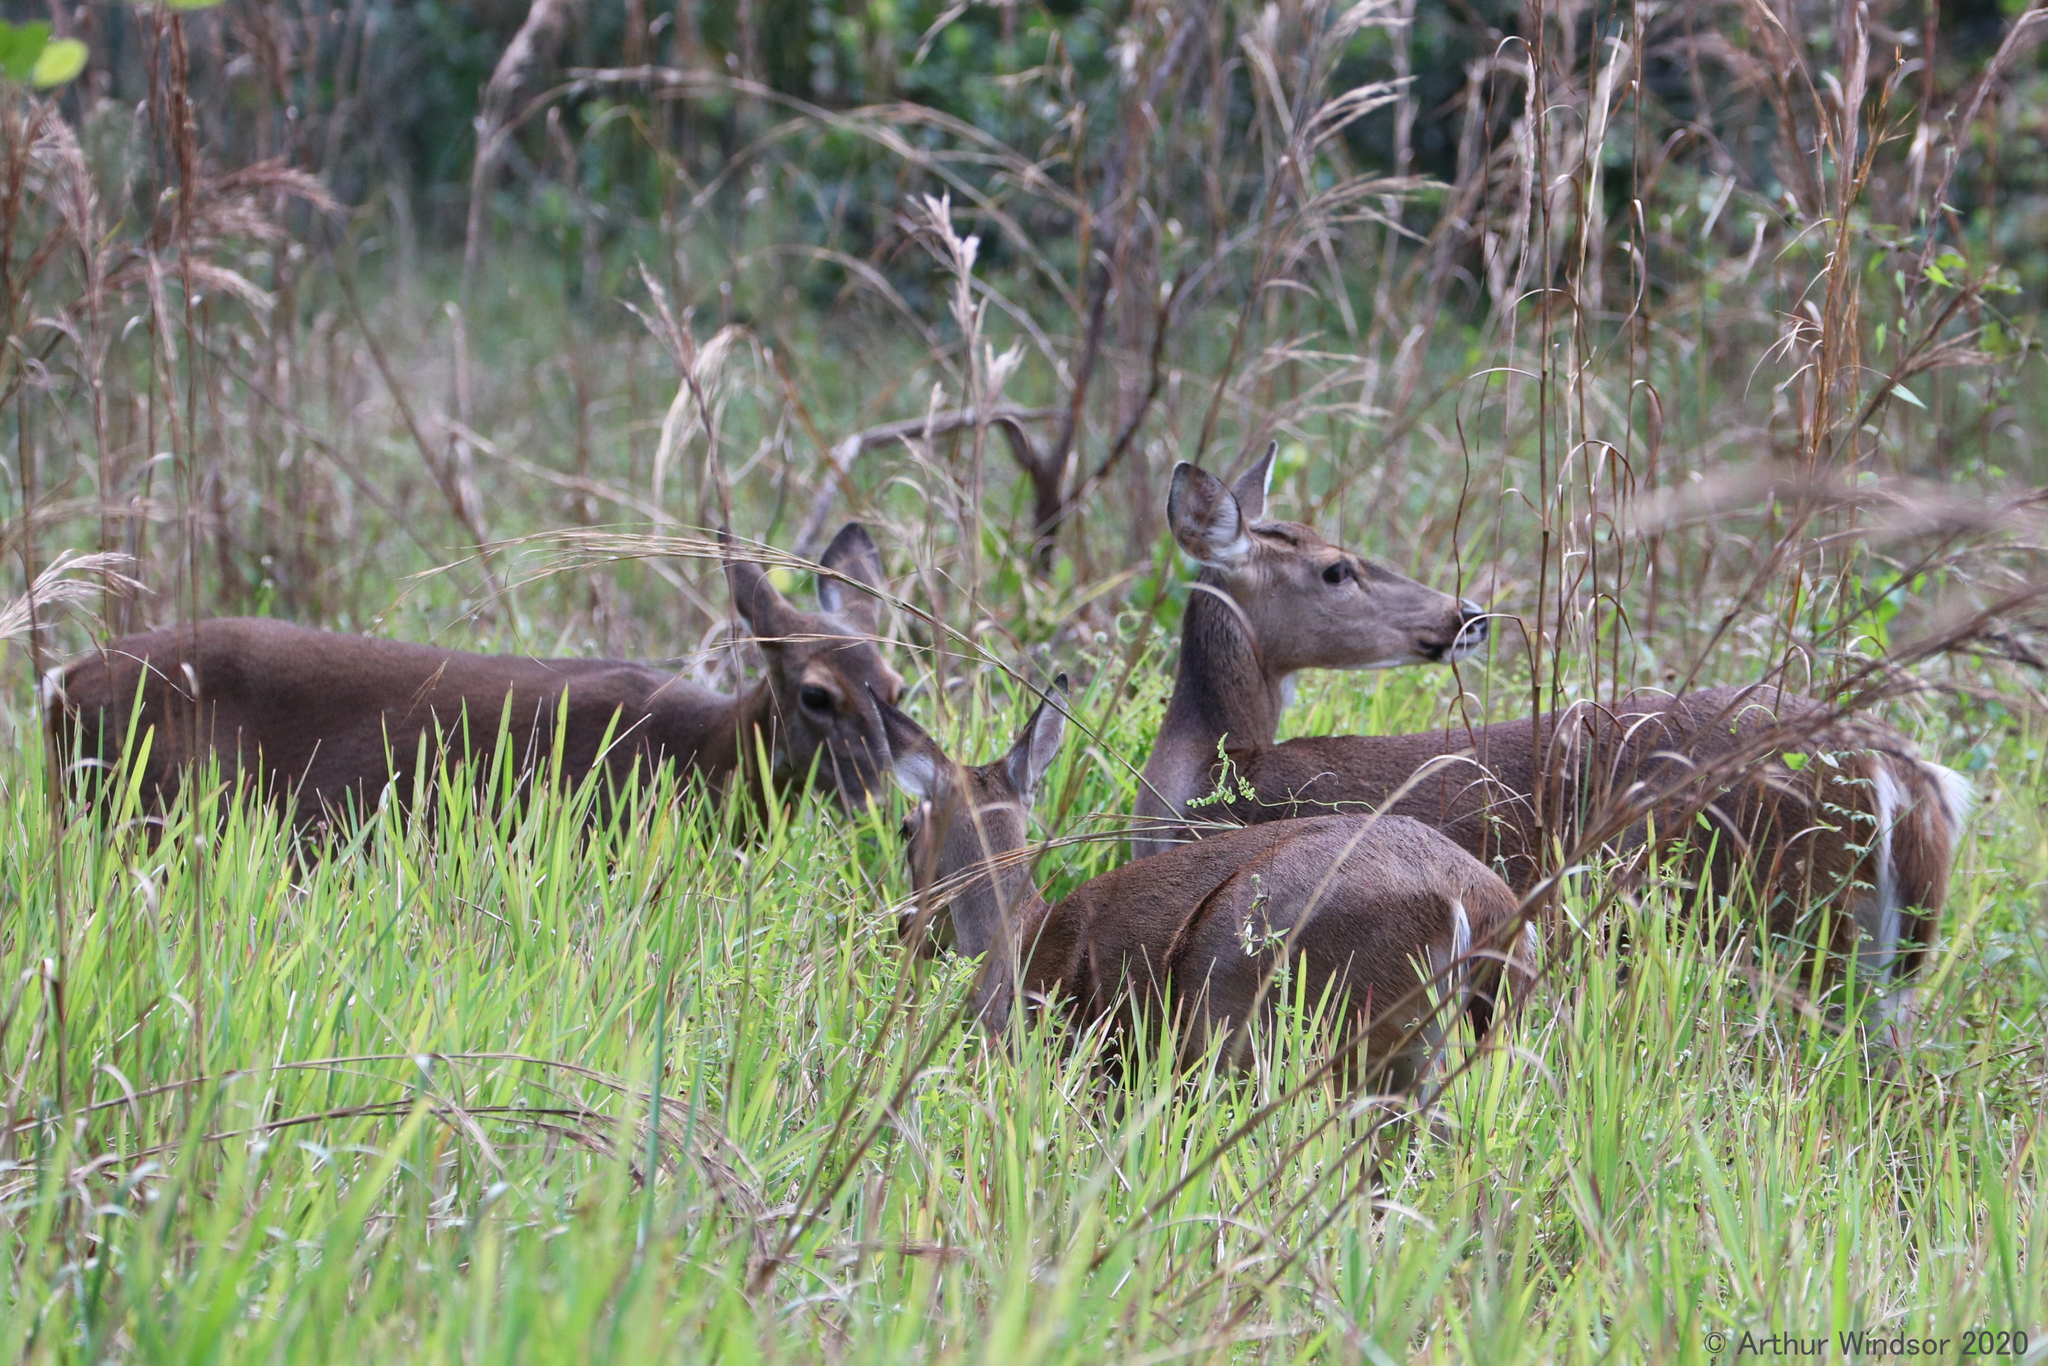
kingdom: Animalia
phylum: Chordata
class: Mammalia
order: Artiodactyla
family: Cervidae
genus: Odocoileus
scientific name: Odocoileus virginianus
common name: White-tailed deer
